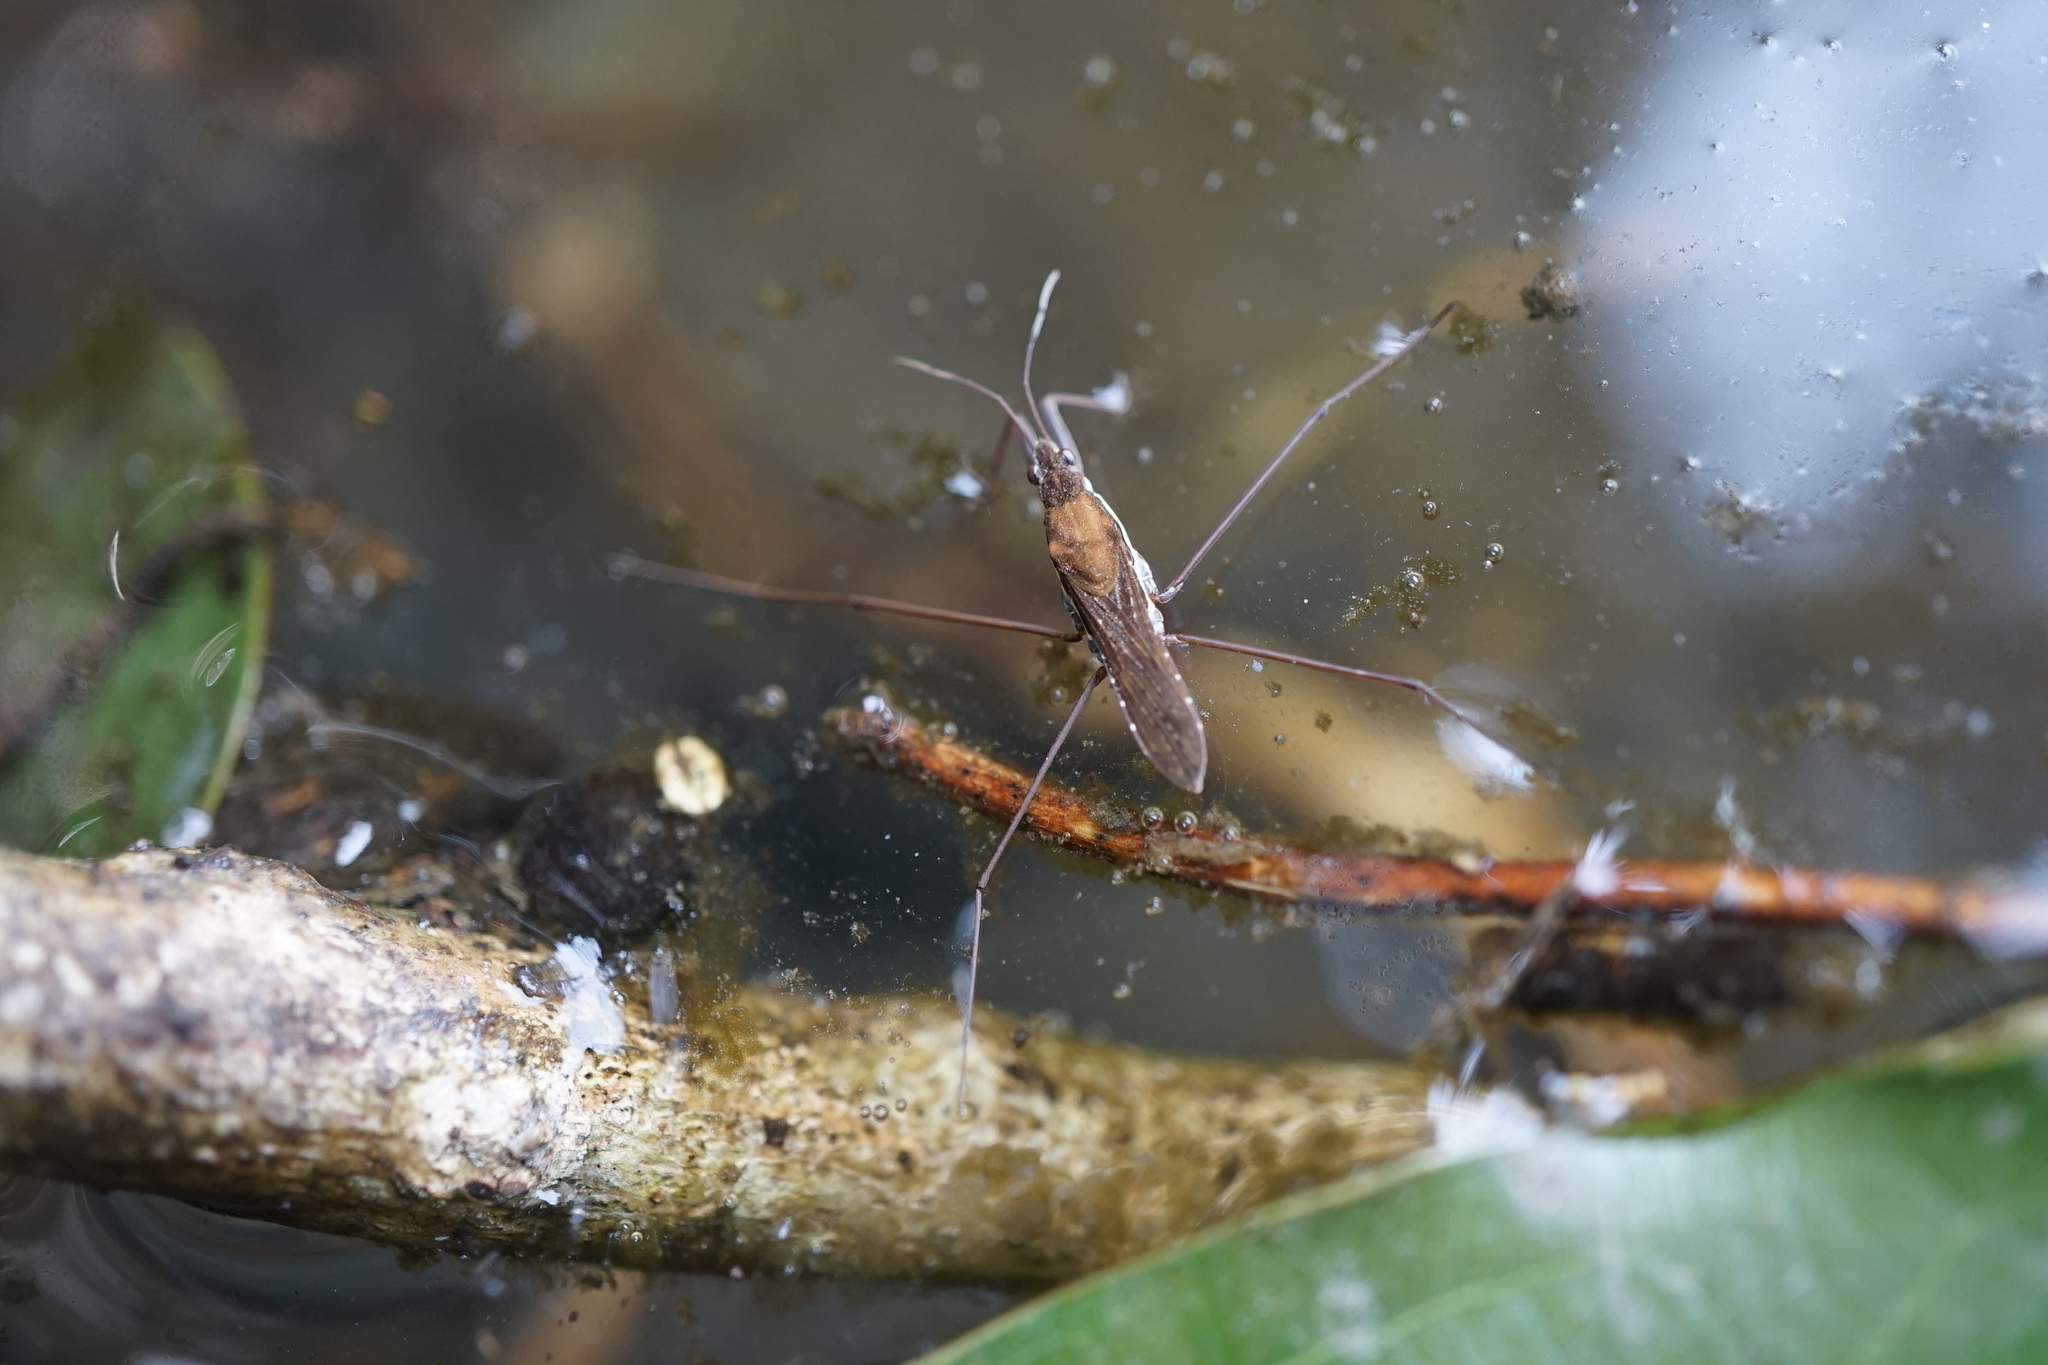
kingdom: Animalia
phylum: Arthropoda
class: Insecta
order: Hemiptera
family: Gerridae
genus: Gerris
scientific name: Gerris gracilicornis
